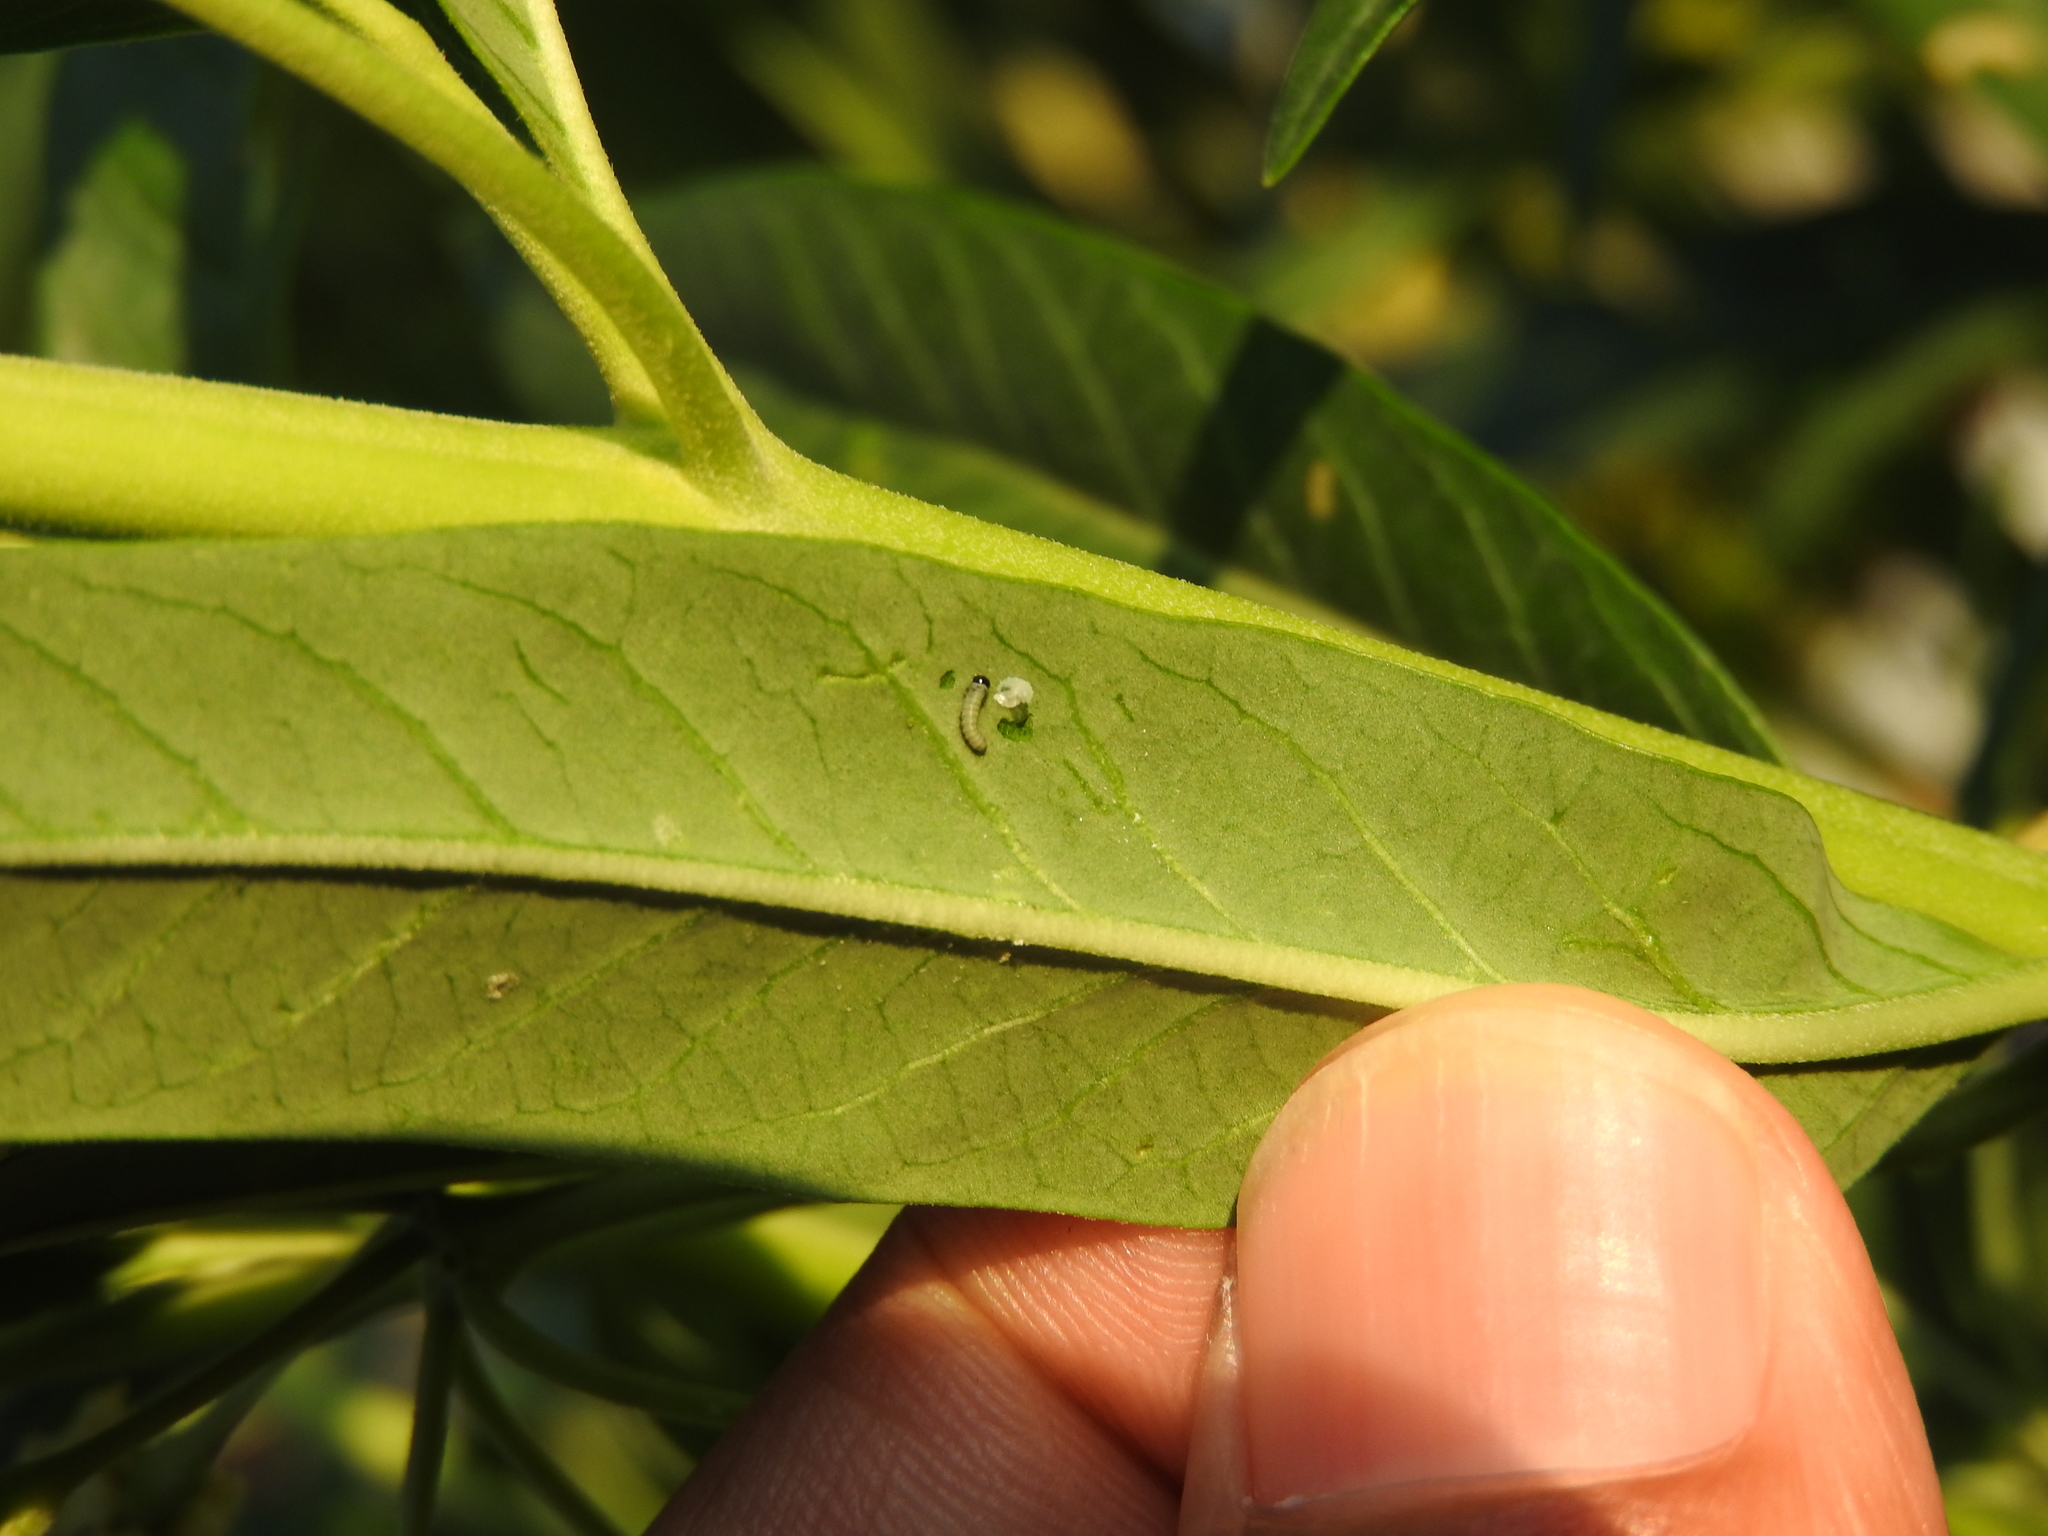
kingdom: Animalia
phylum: Arthropoda
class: Insecta
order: Lepidoptera
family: Nymphalidae
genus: Danaus
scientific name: Danaus plexippus
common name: Monarch
